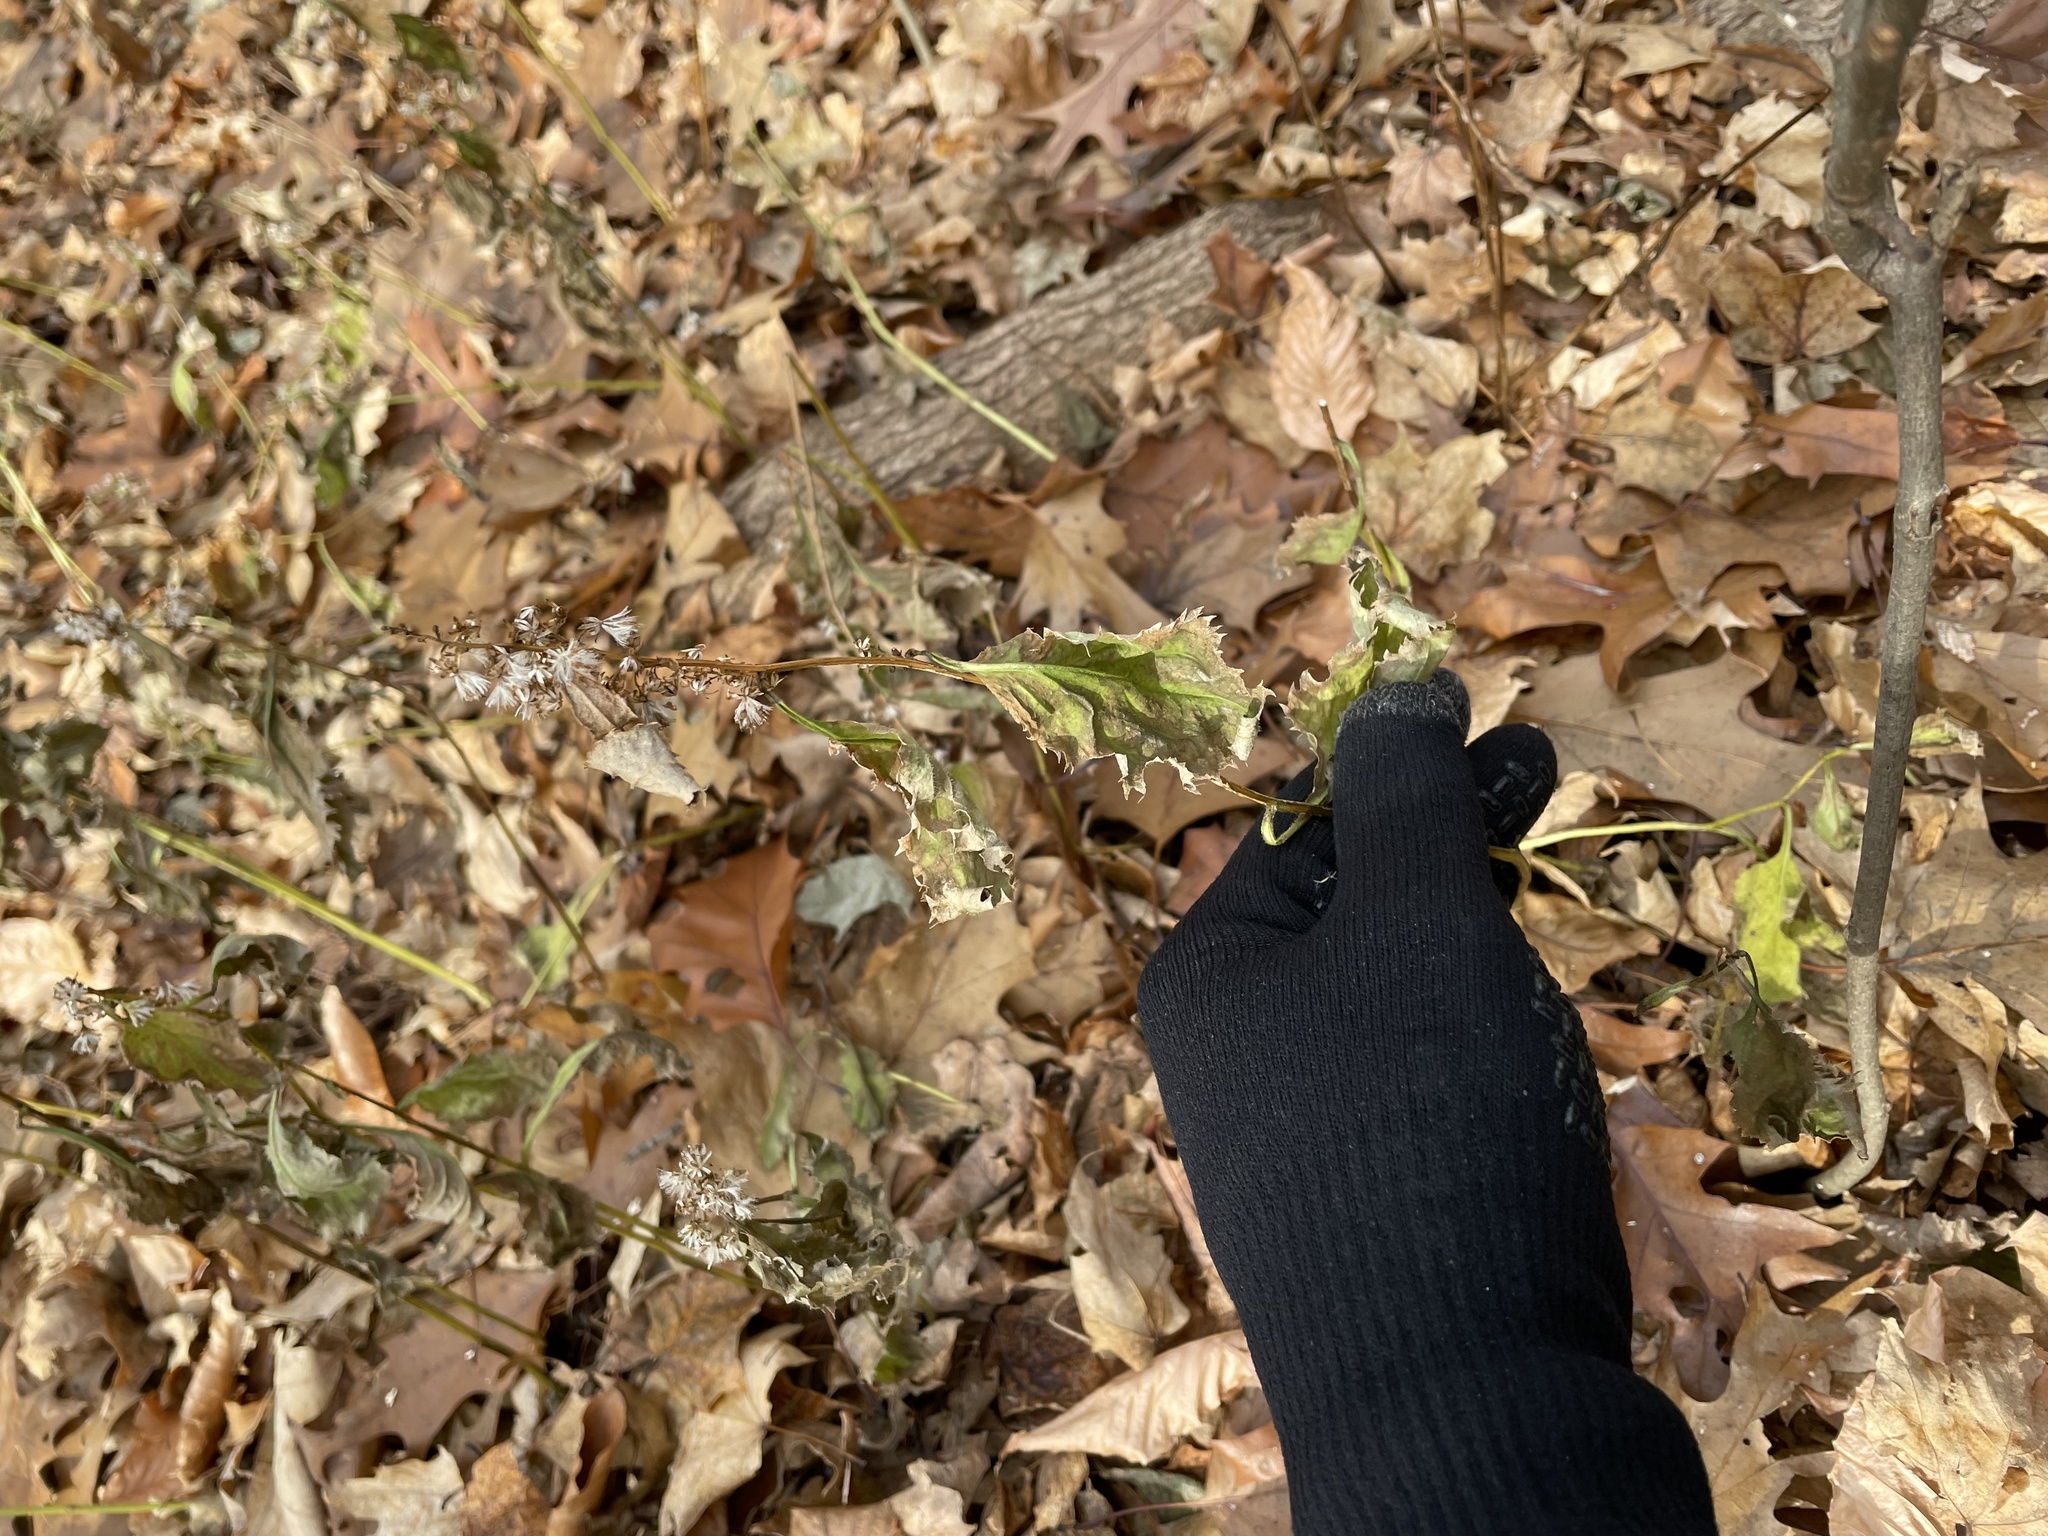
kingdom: Plantae
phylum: Tracheophyta
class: Magnoliopsida
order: Asterales
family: Asteraceae
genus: Solidago
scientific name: Solidago flexicaulis
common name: Zig-zag goldenrod
